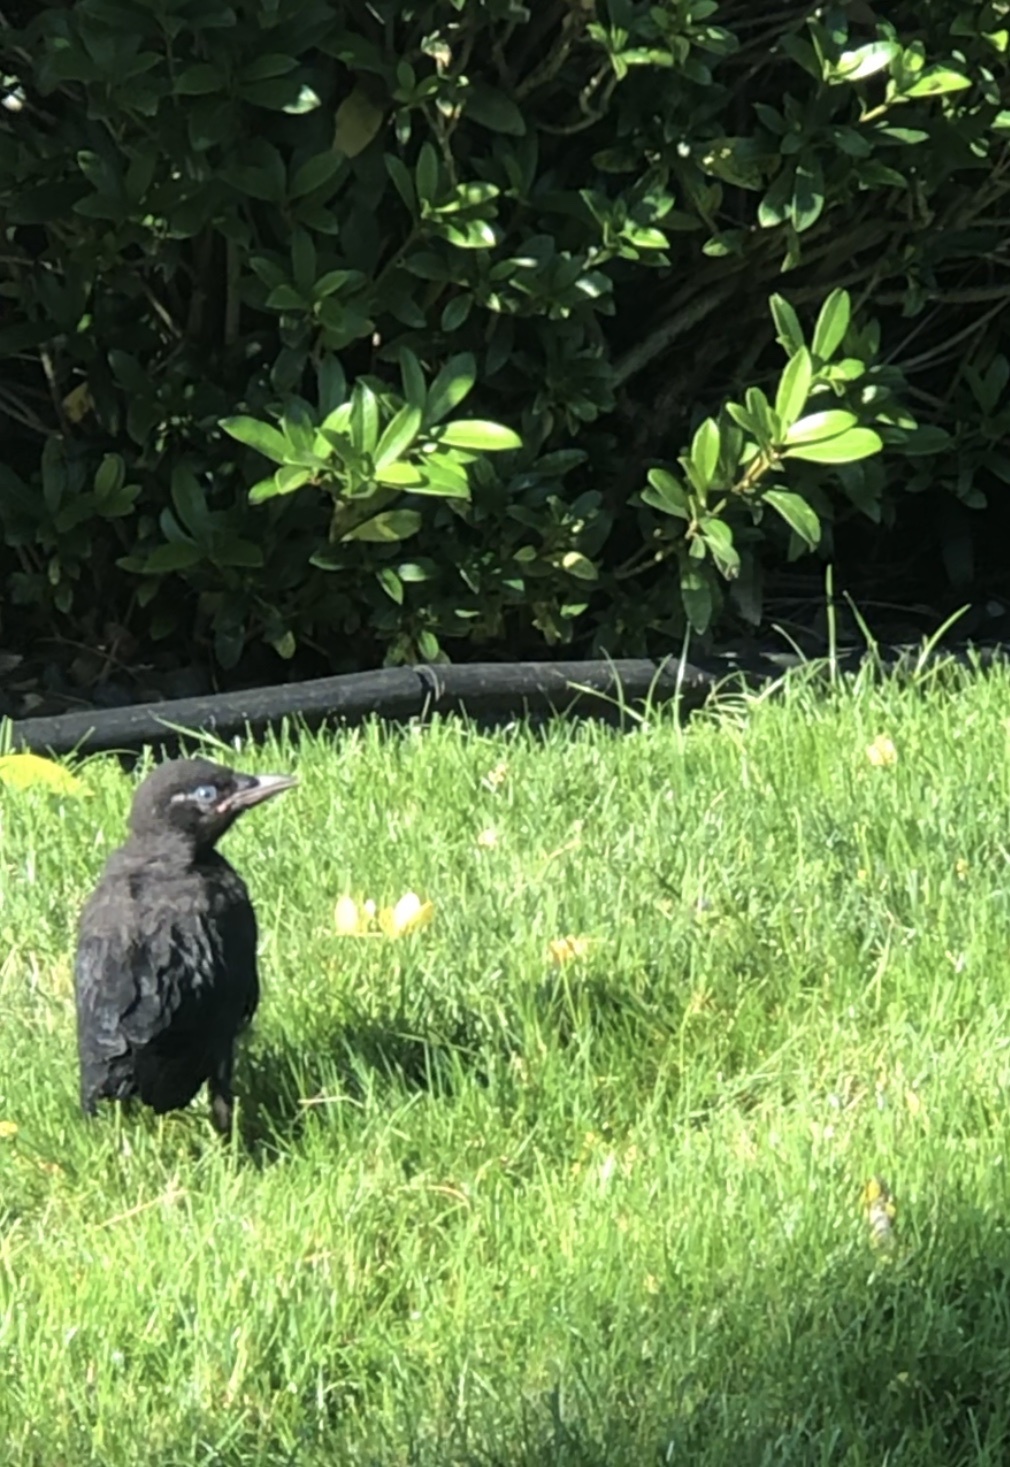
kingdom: Animalia
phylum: Chordata
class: Aves
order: Passeriformes
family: Corvidae
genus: Corvus
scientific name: Corvus brachyrhynchos
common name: American crow
